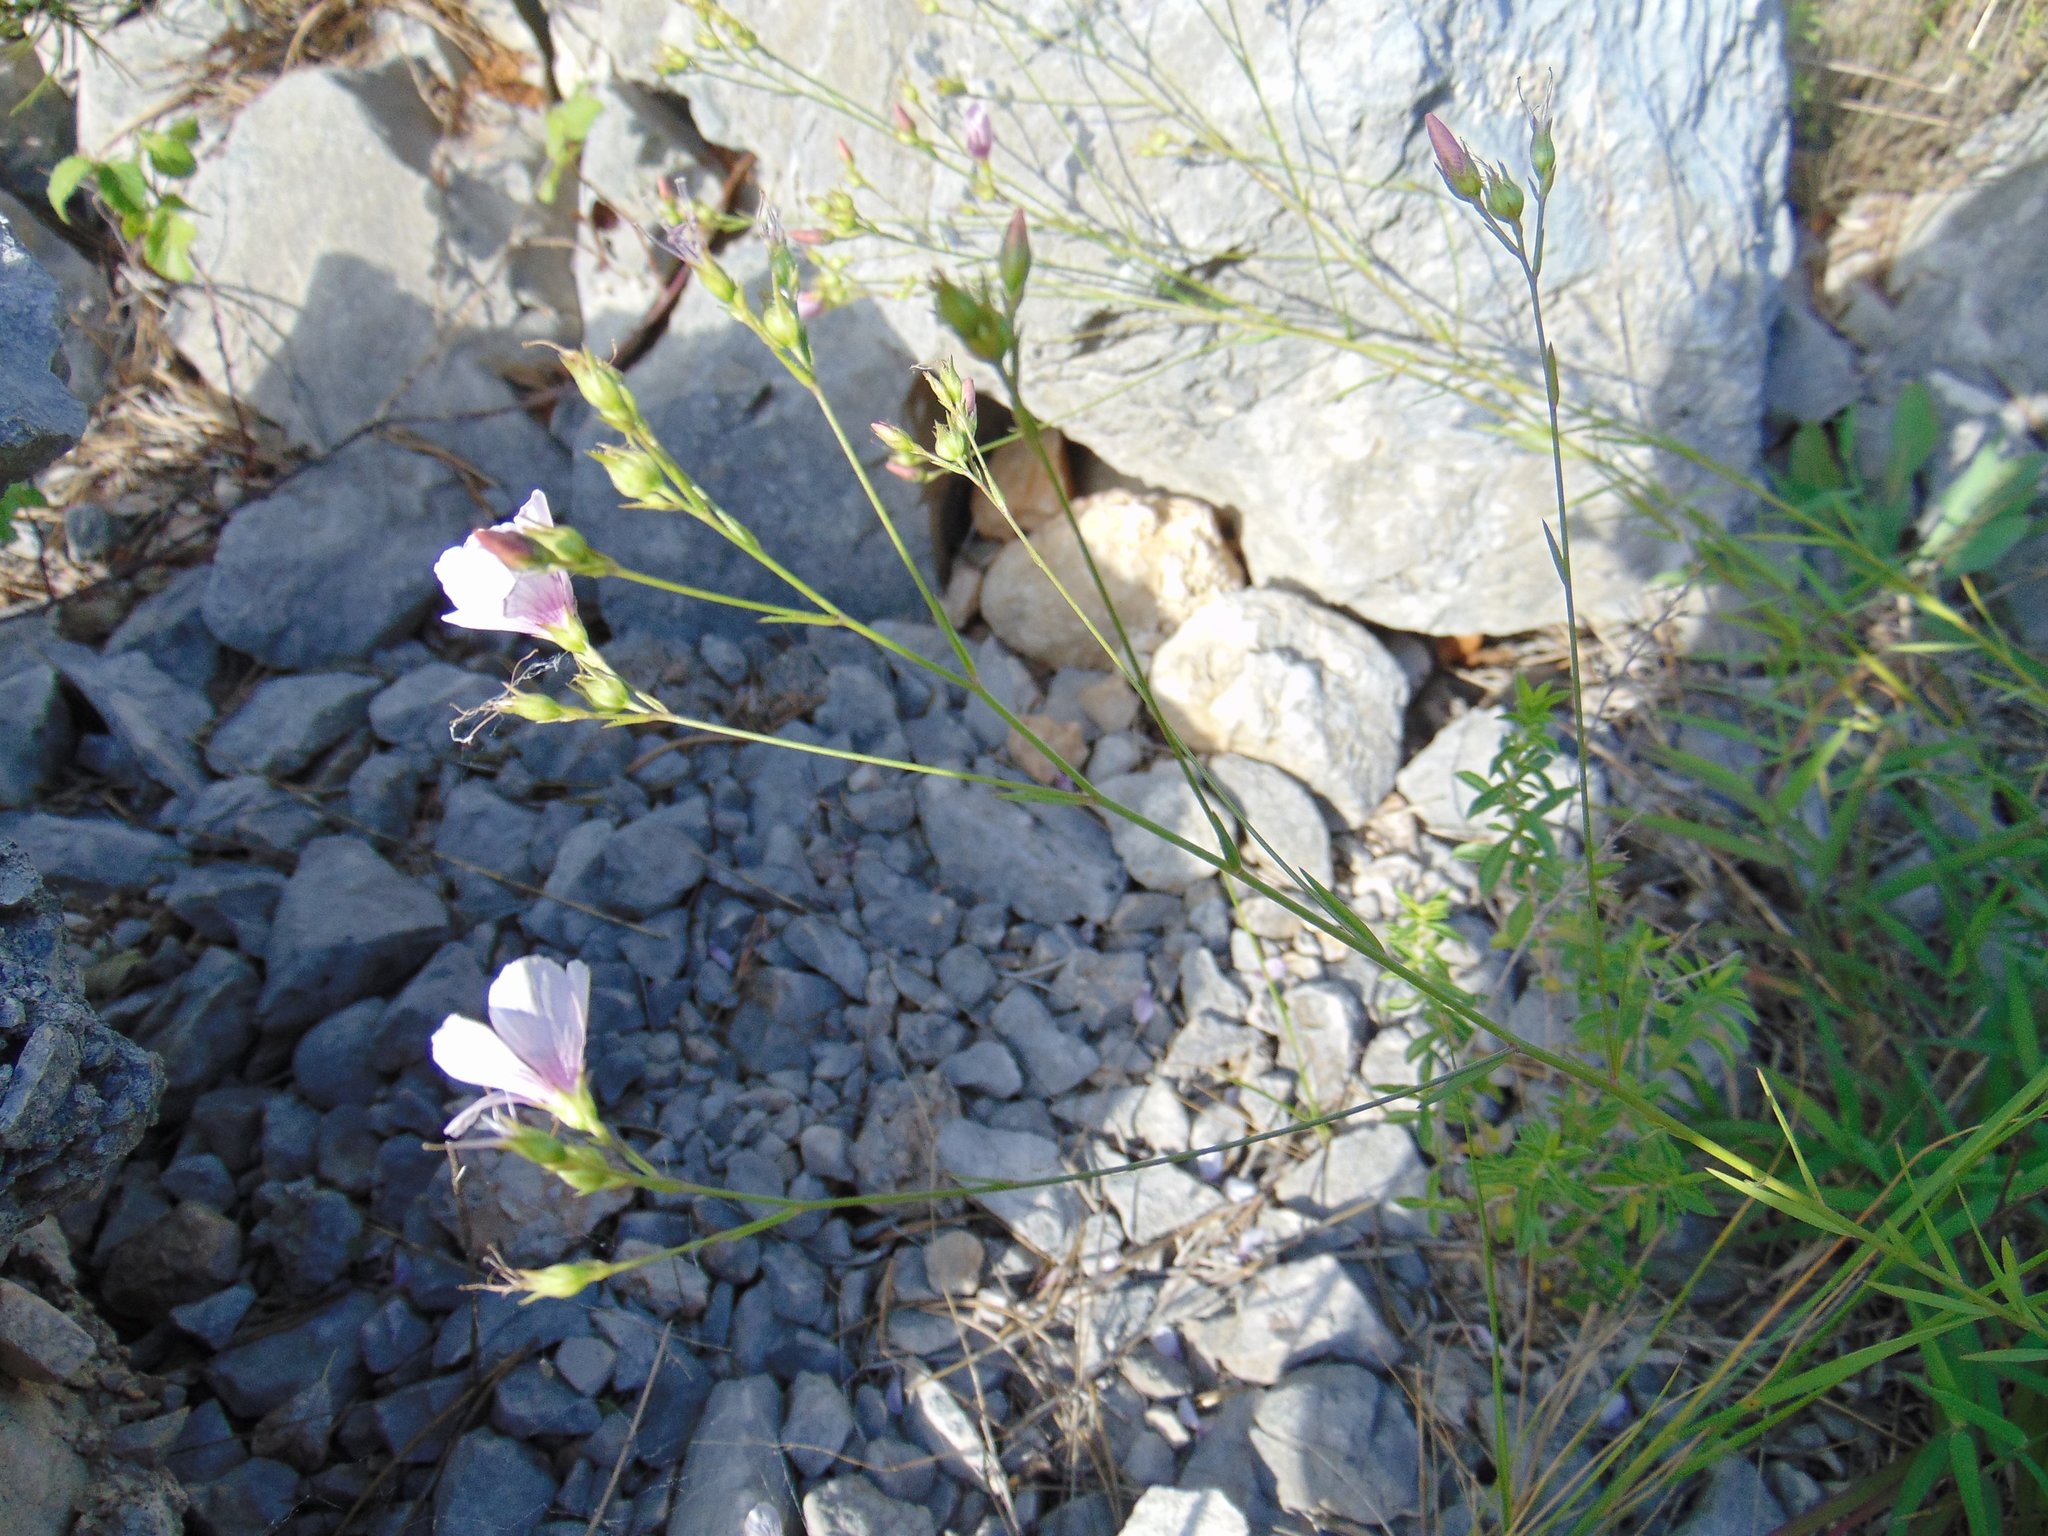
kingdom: Plantae
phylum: Tracheophyta
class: Magnoliopsida
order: Malpighiales
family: Linaceae
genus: Linum
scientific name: Linum tenuifolium
